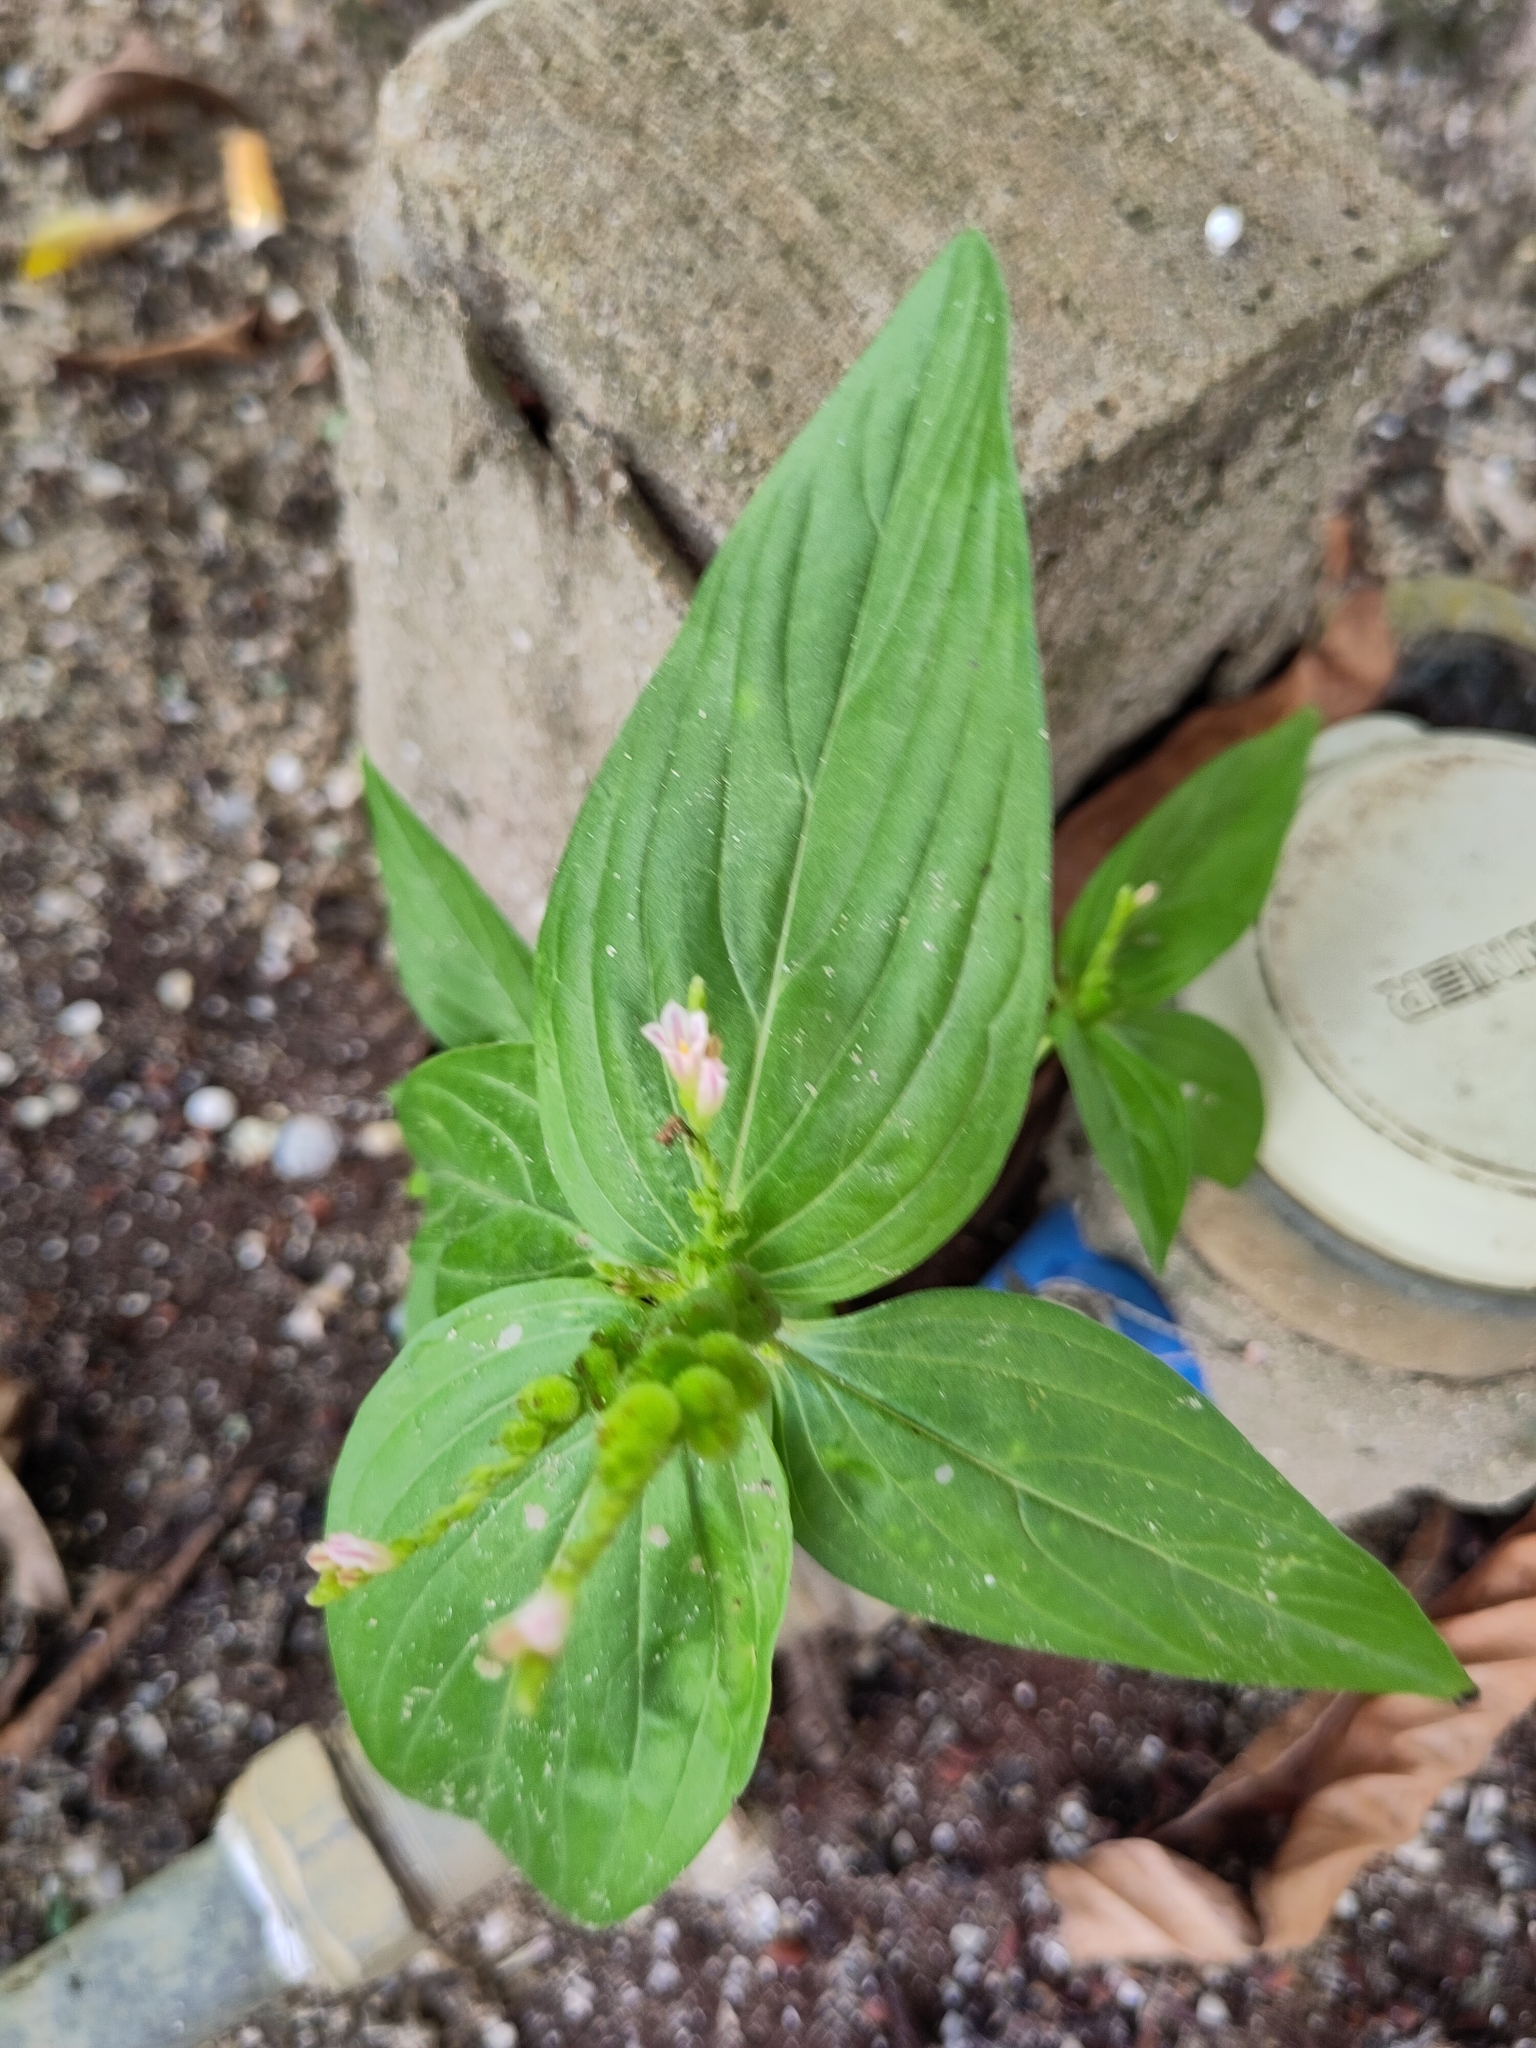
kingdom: Plantae
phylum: Tracheophyta
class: Magnoliopsida
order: Gentianales
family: Loganiaceae
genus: Spigelia
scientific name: Spigelia anthelmia
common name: West indian-pink
